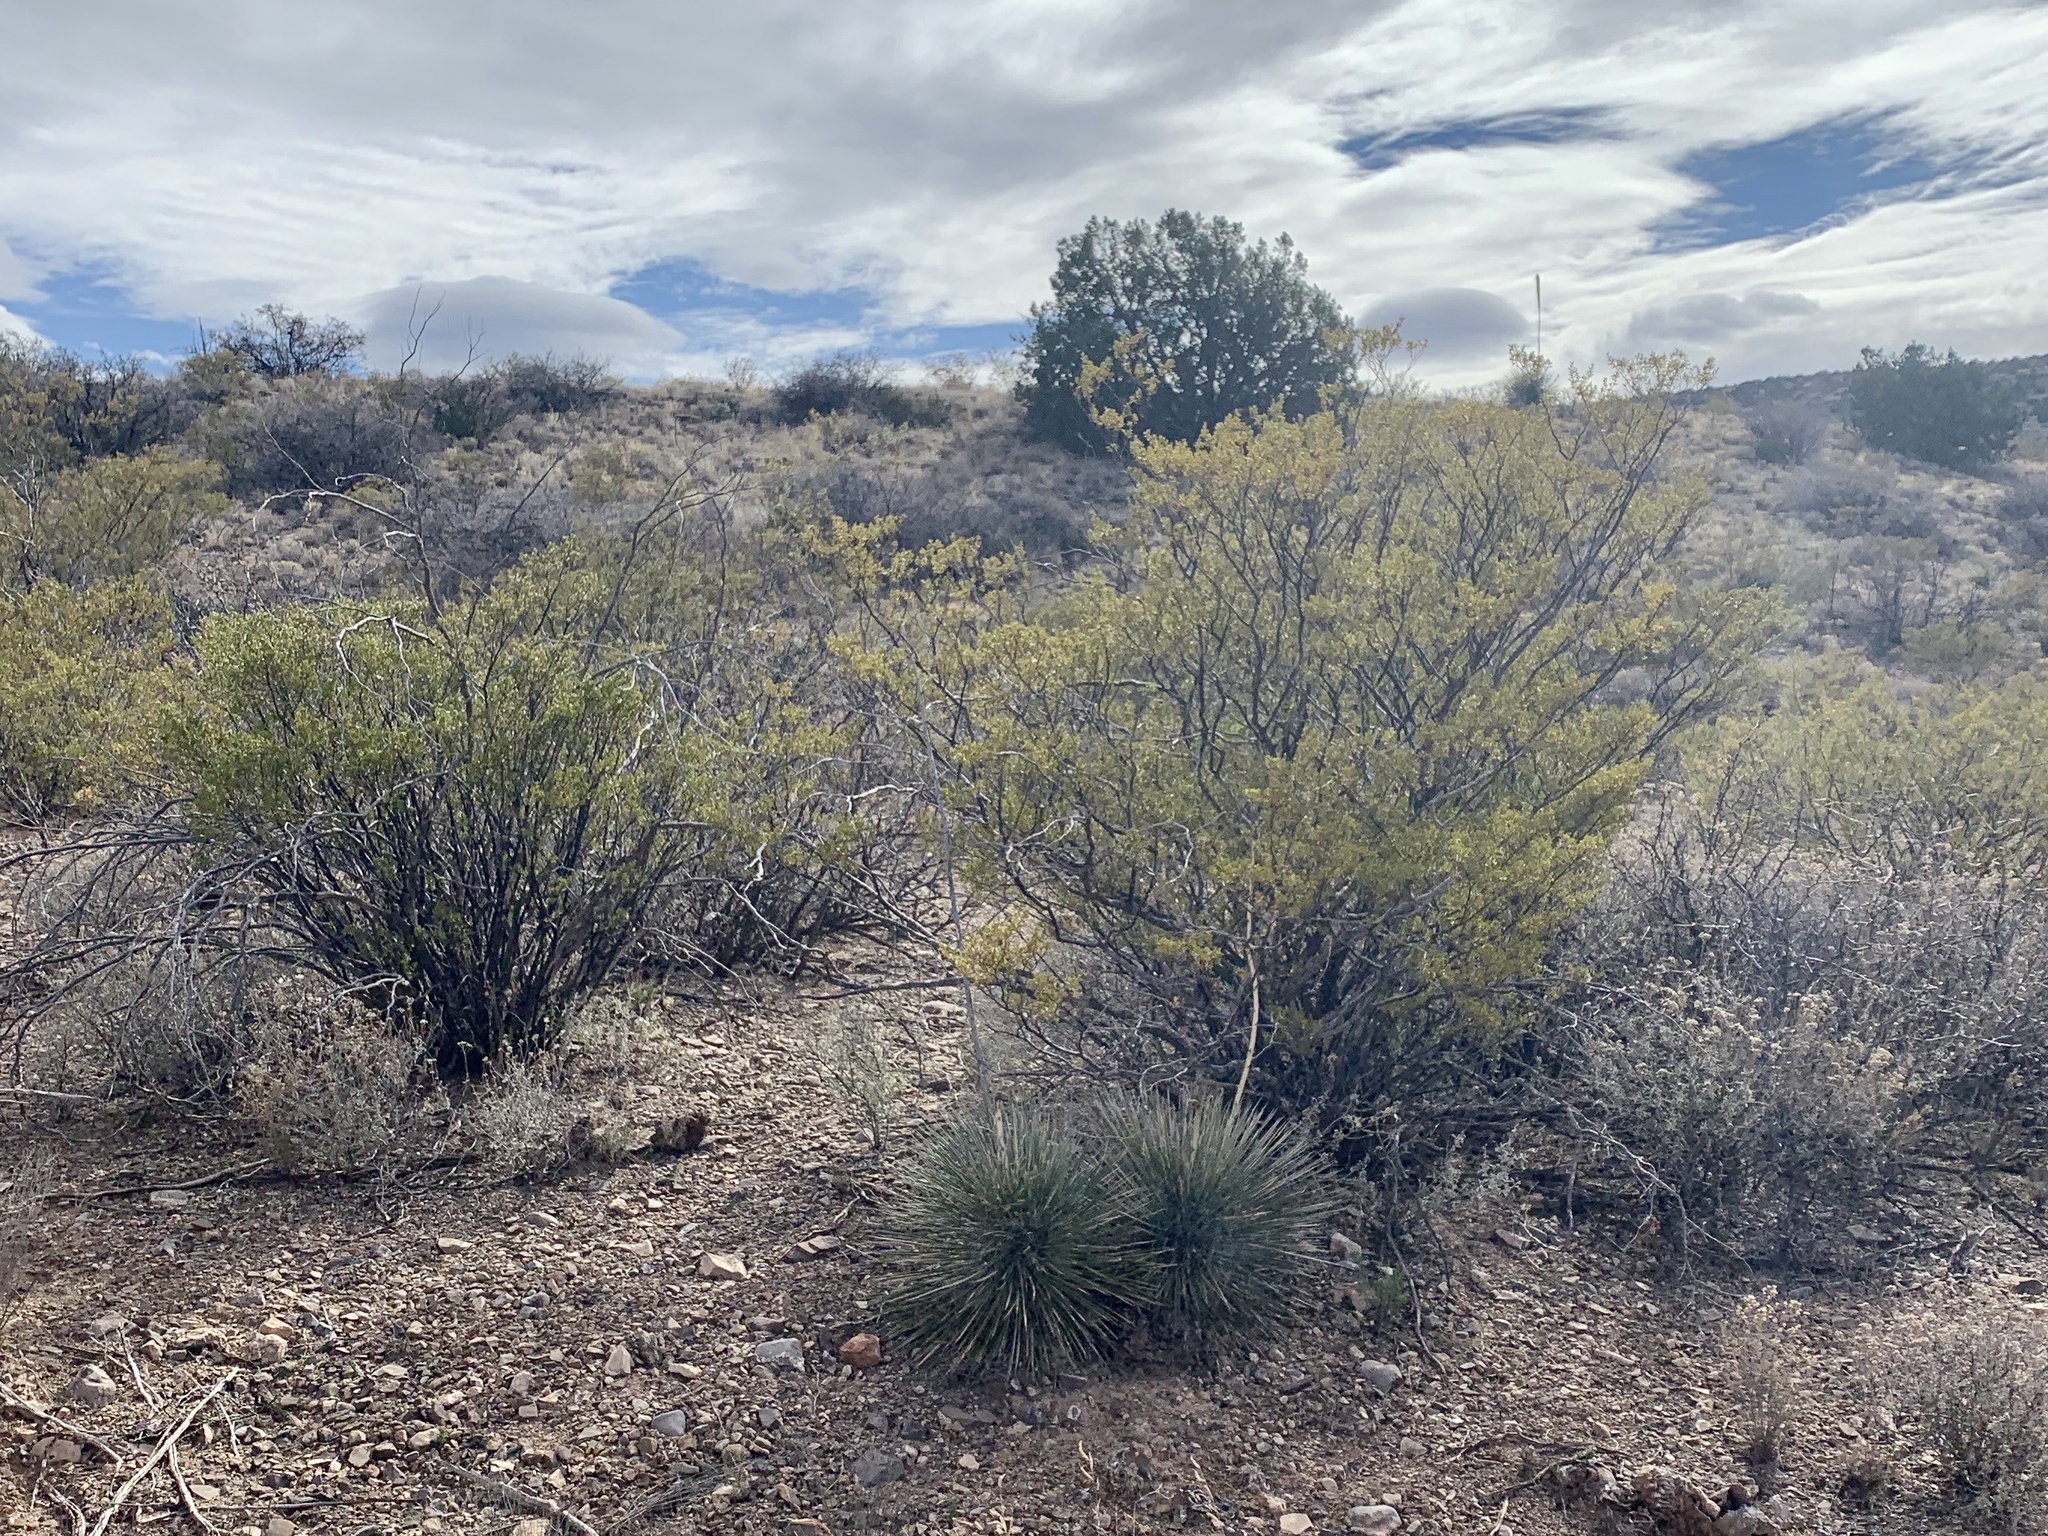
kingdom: Plantae
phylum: Tracheophyta
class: Magnoliopsida
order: Zygophyllales
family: Zygophyllaceae
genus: Larrea
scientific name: Larrea tridentata
